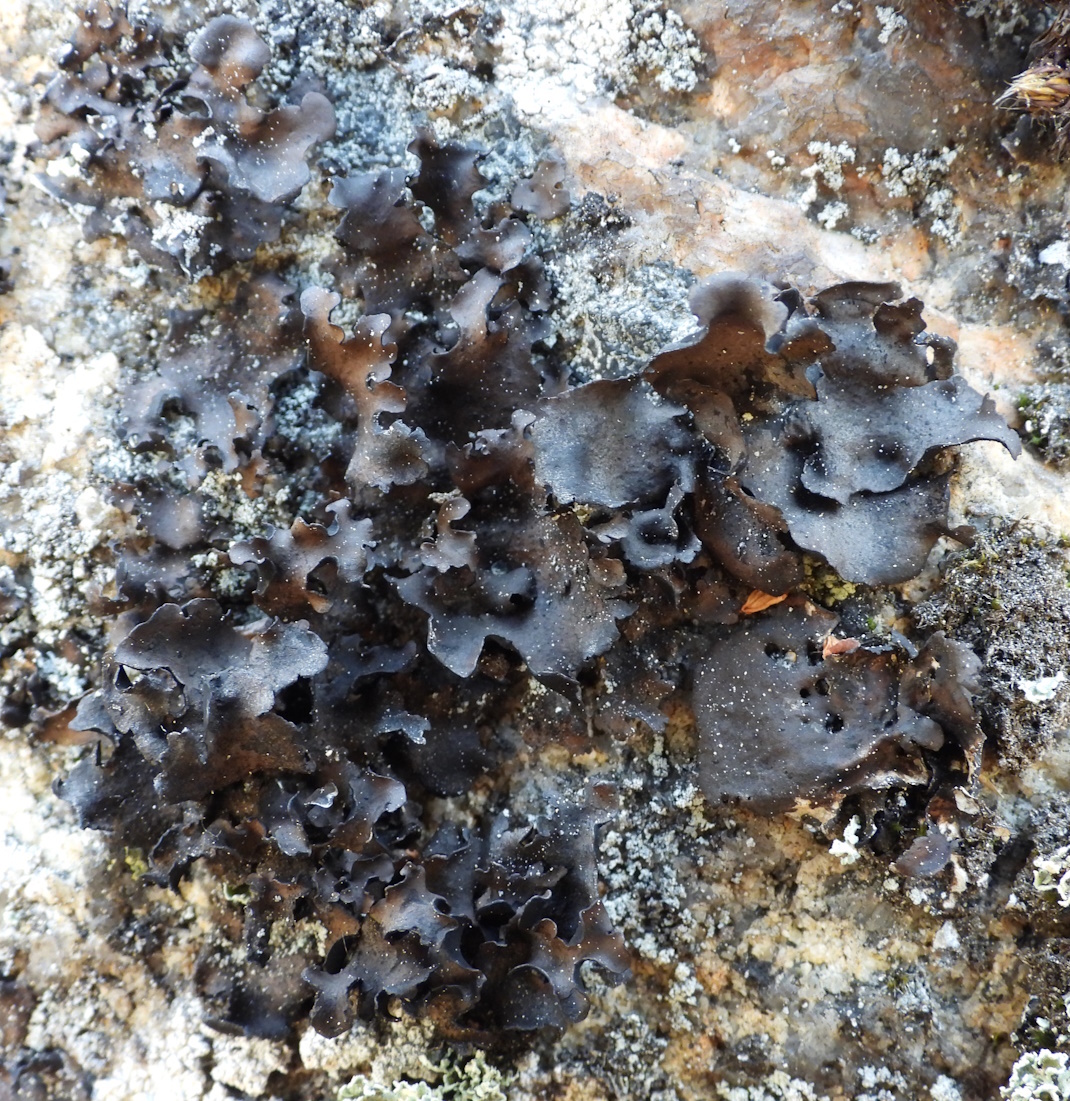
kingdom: Fungi
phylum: Ascomycota
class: Lecanoromycetes
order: Umbilicariales
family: Umbilicariaceae
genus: Umbilicaria
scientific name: Umbilicaria polyphylla
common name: Petalled rocktripe lichen
